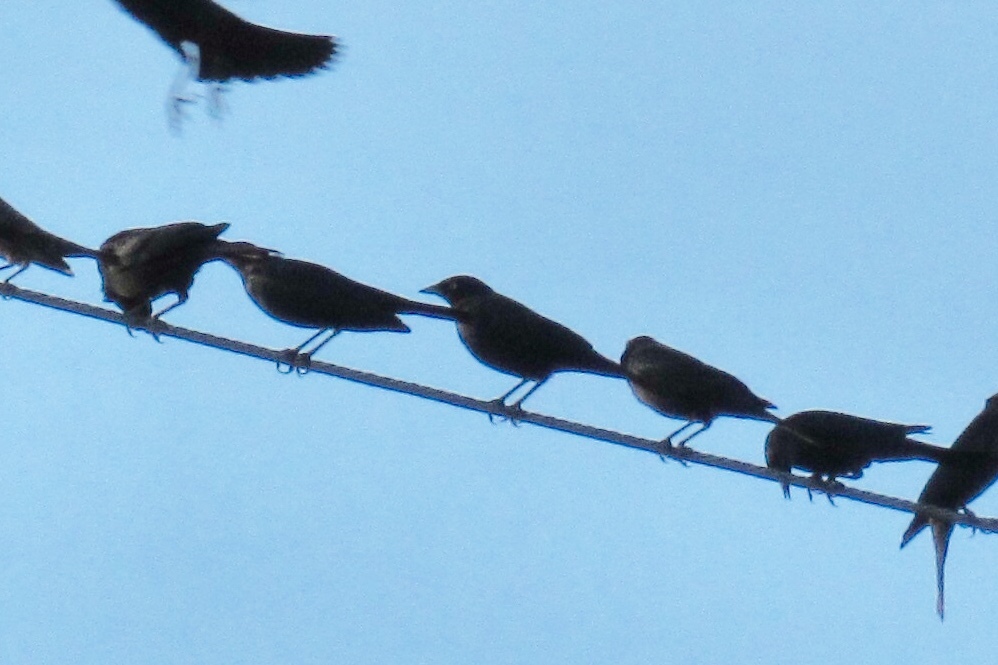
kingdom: Animalia
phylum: Chordata
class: Aves
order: Passeriformes
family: Icteridae
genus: Euphagus
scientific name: Euphagus cyanocephalus
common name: Brewer's blackbird
